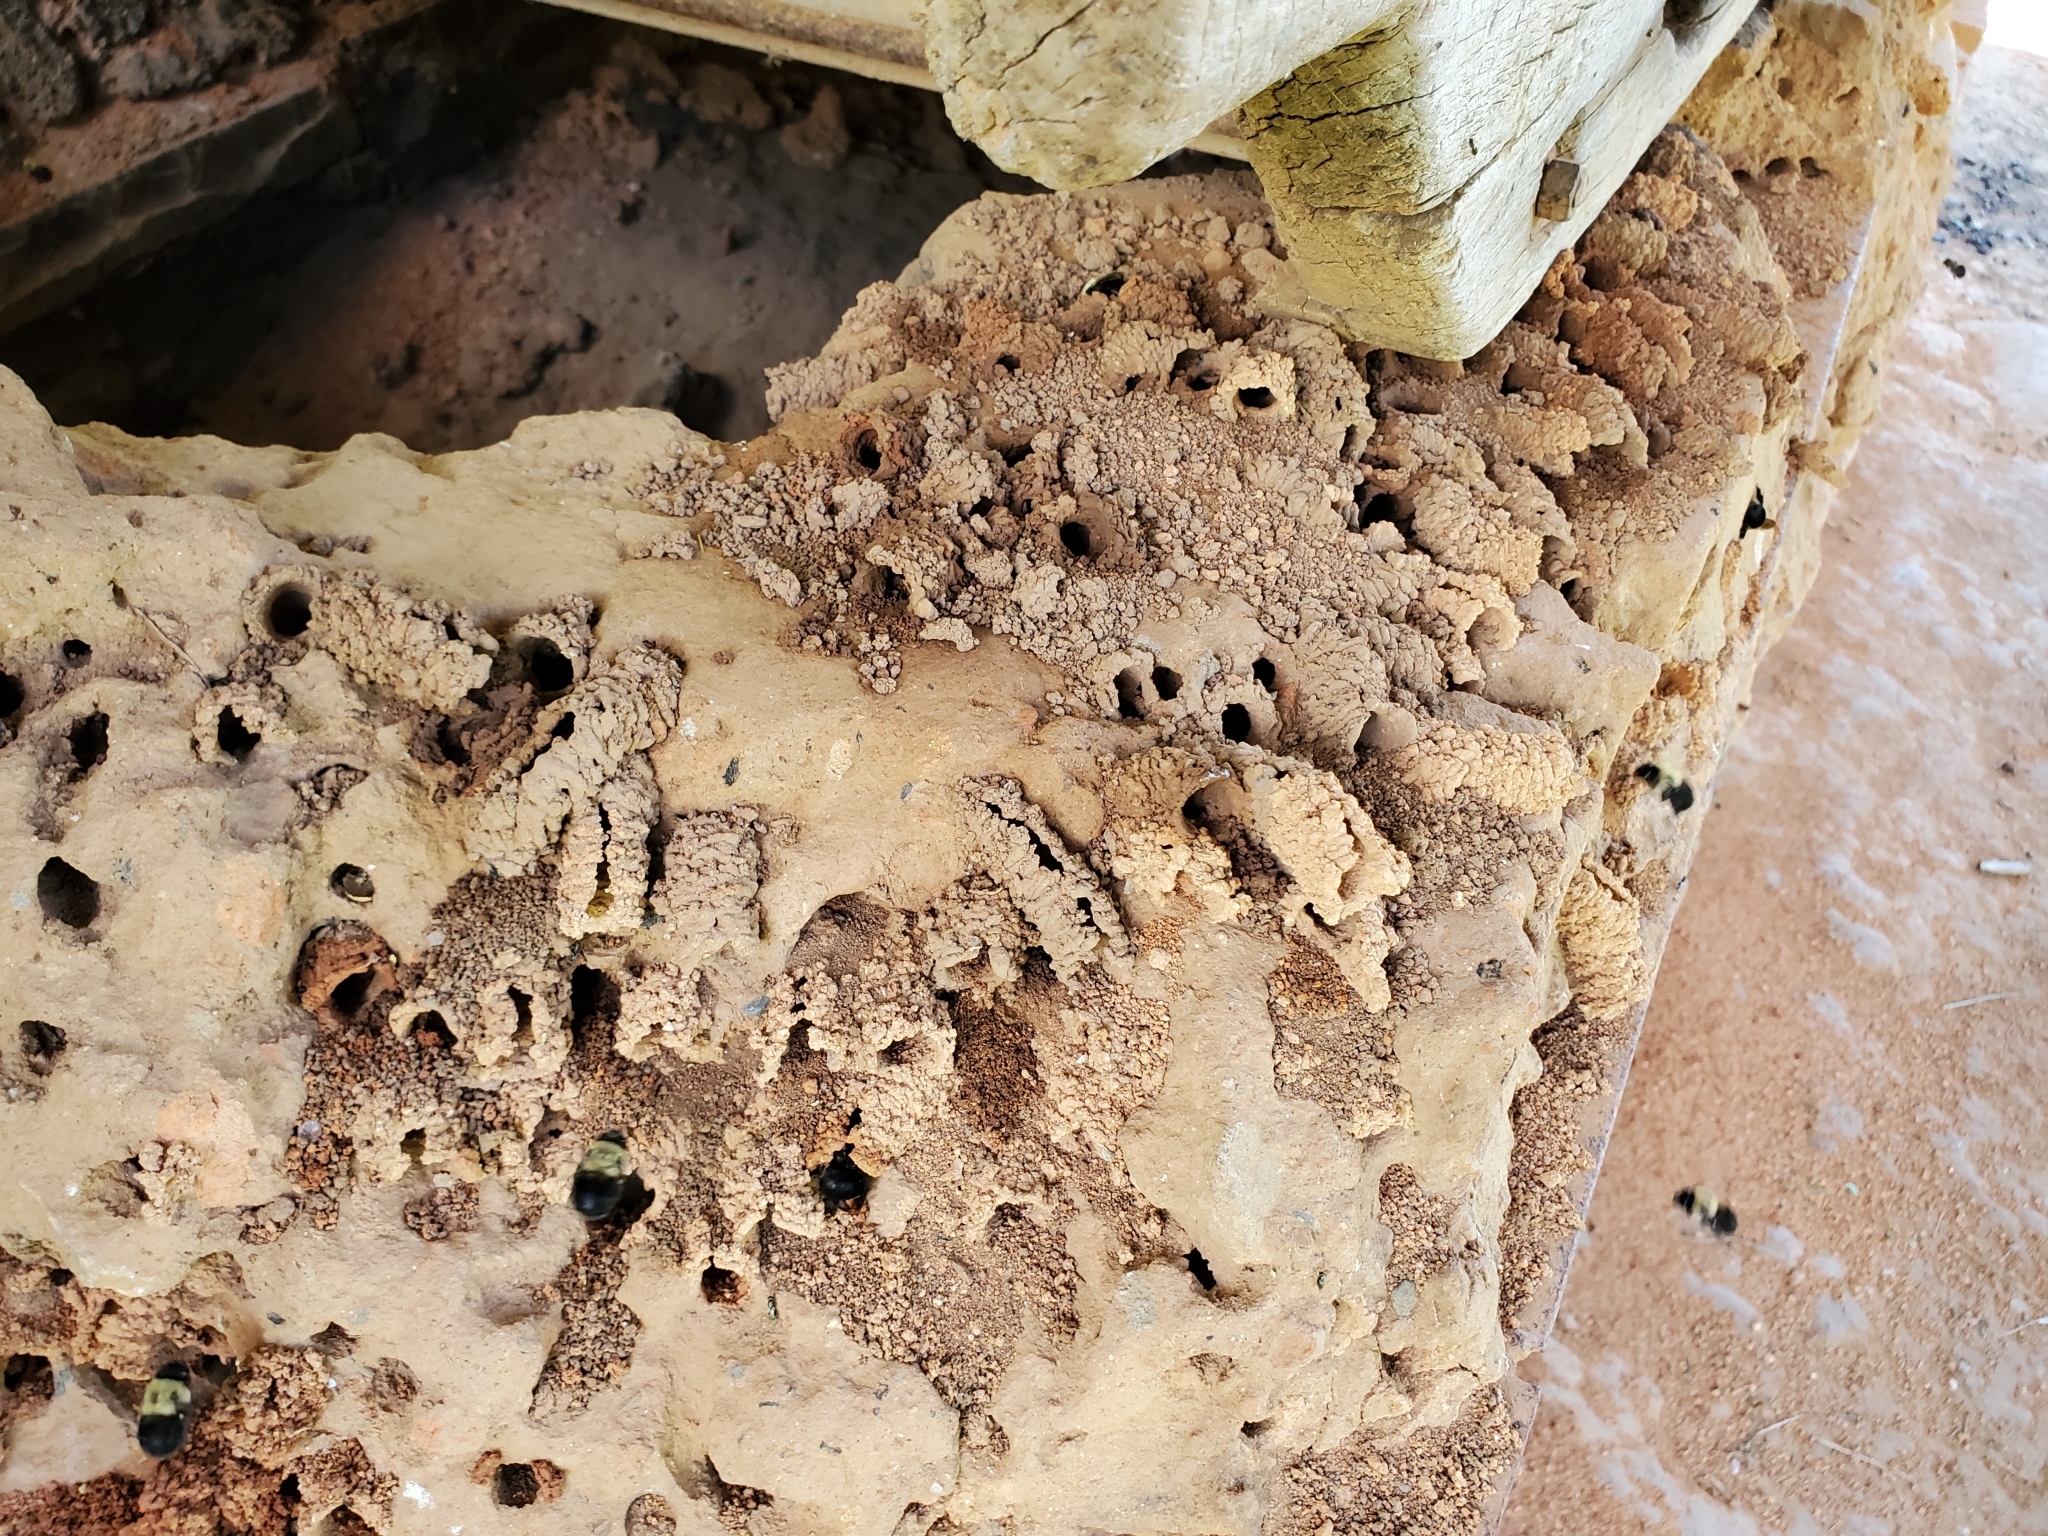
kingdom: Animalia
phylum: Arthropoda
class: Insecta
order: Hymenoptera
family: Apidae
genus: Anthophora
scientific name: Anthophora abrupta
